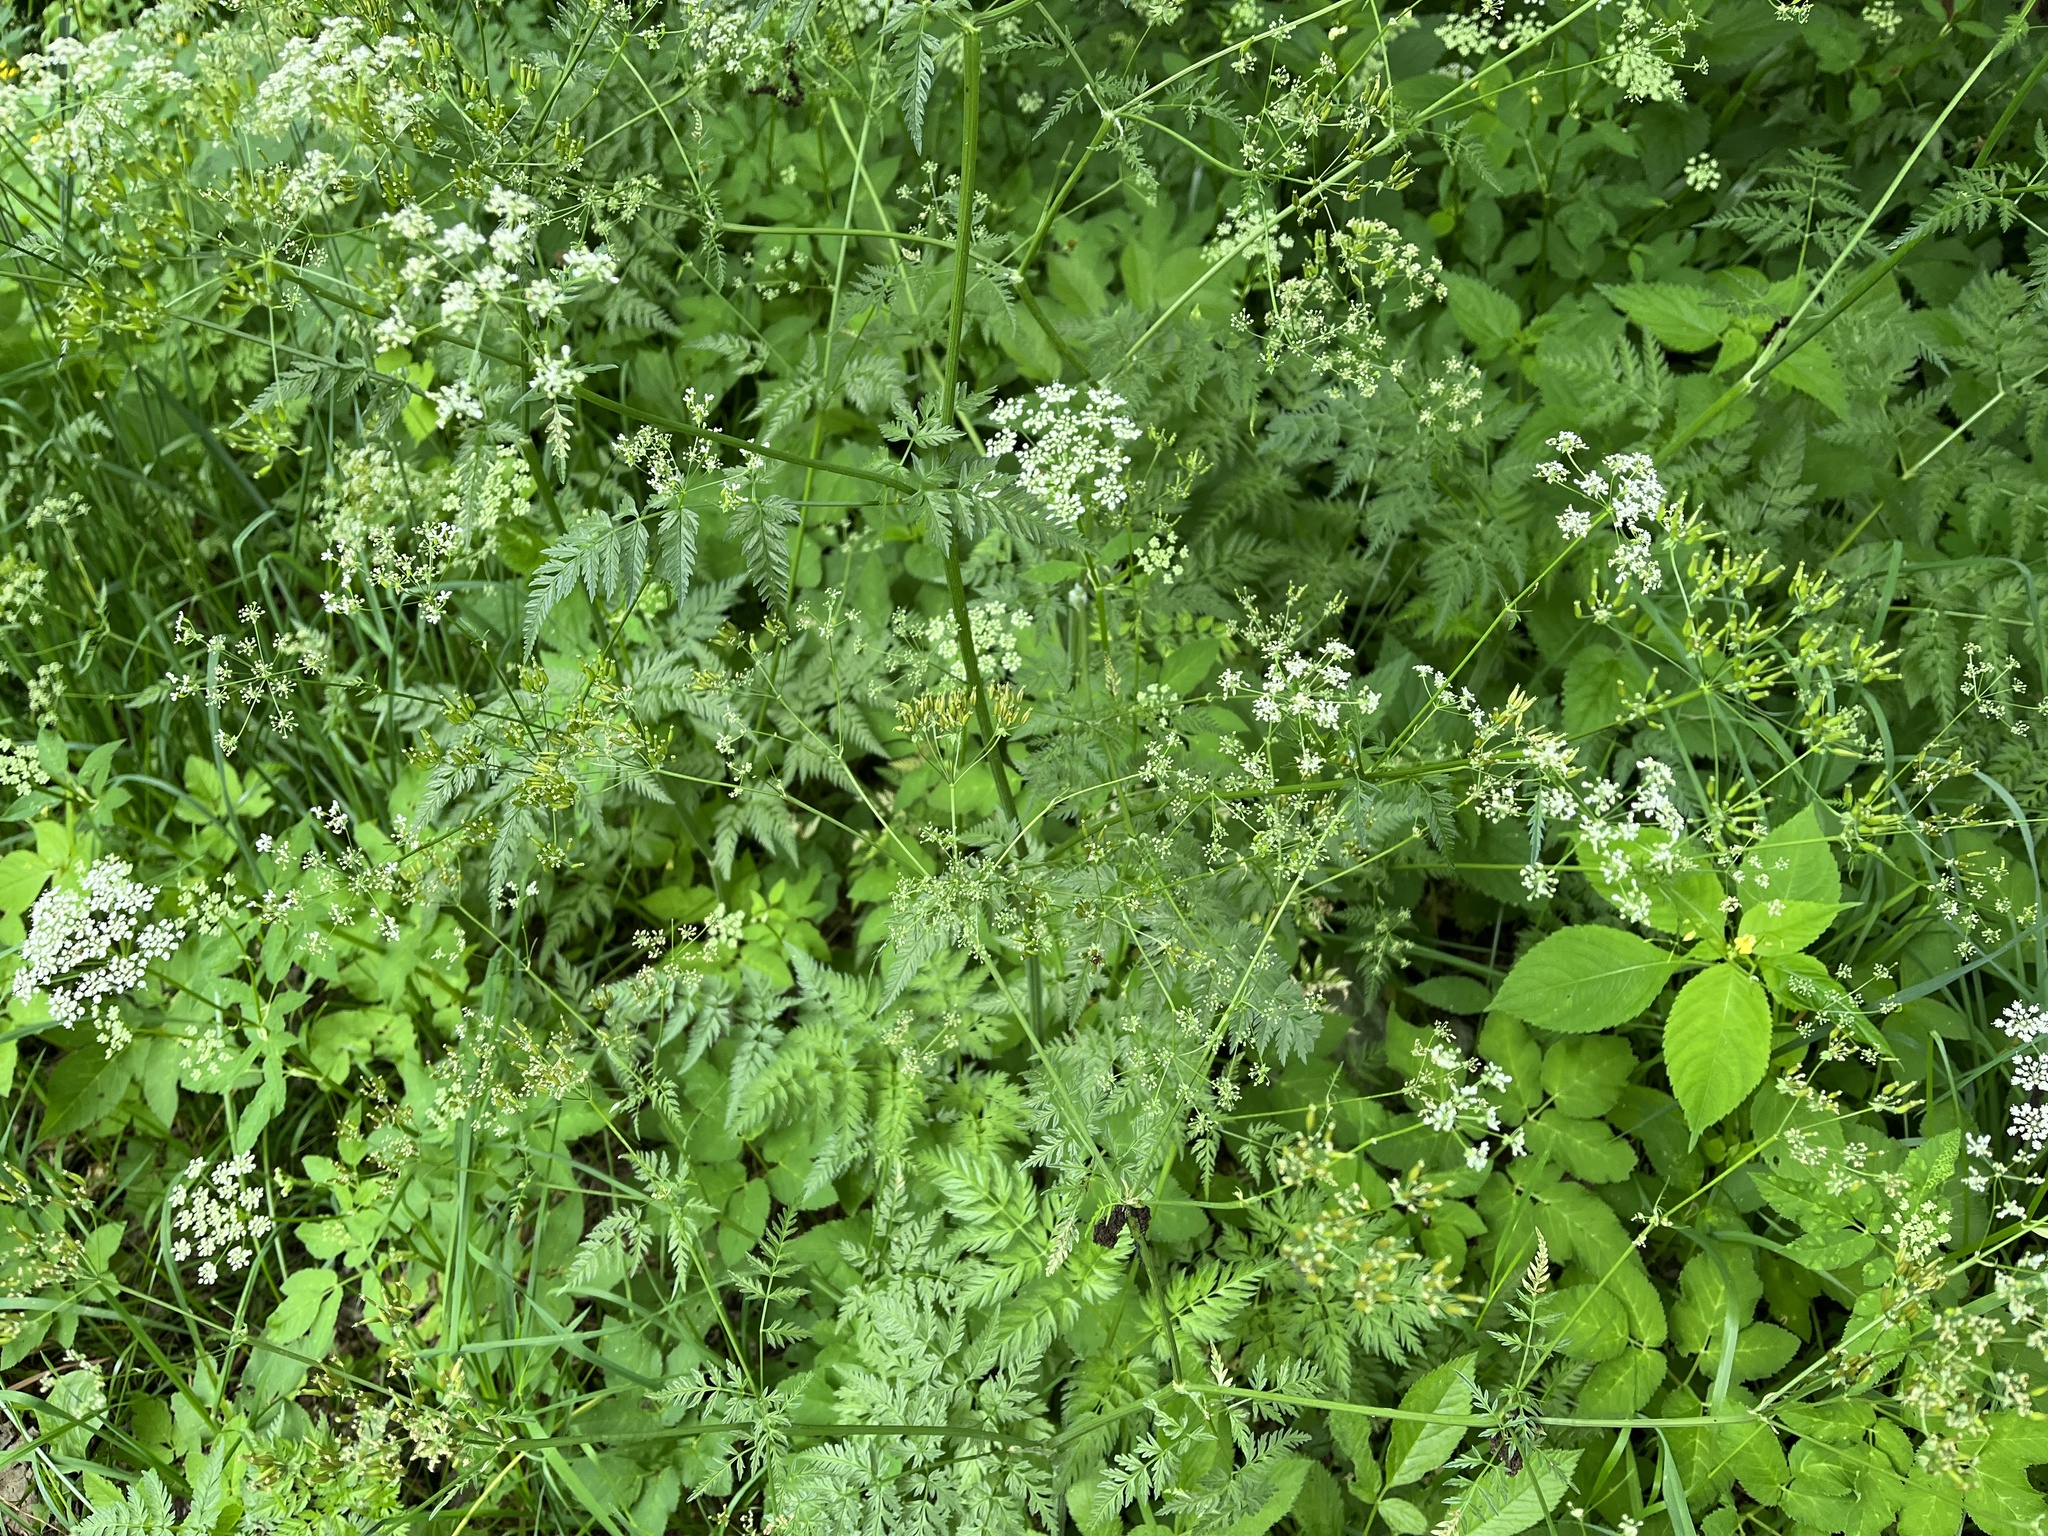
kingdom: Plantae
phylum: Tracheophyta
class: Magnoliopsida
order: Apiales
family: Apiaceae
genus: Anthriscus
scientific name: Anthriscus sylvestris
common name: Cow parsley
